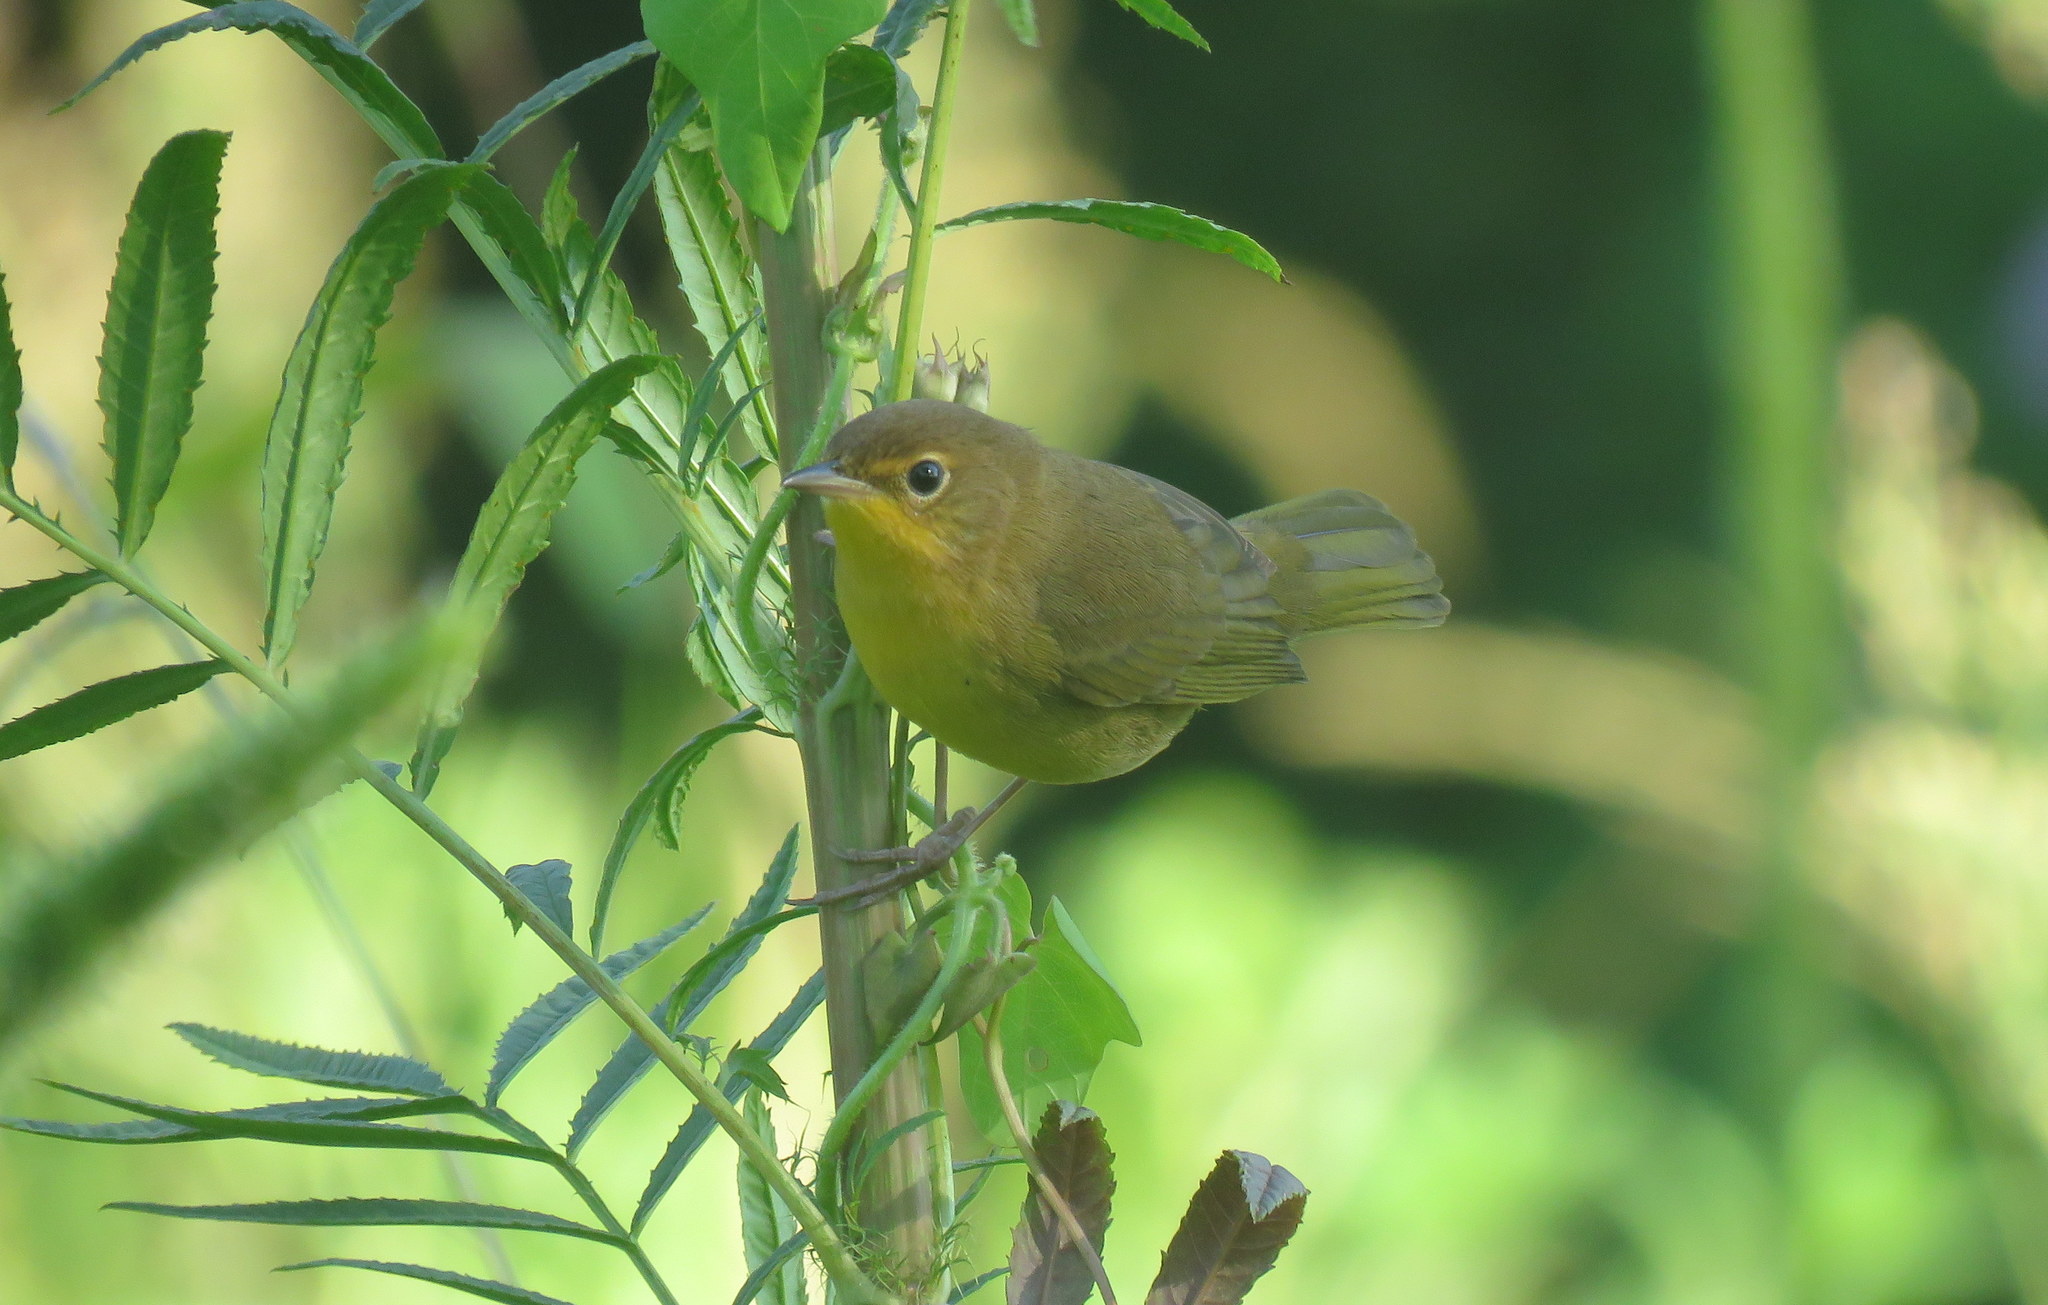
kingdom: Animalia
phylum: Chordata
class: Aves
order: Passeriformes
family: Parulidae
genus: Geothlypis
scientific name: Geothlypis velata
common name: Southern yellowthroat
